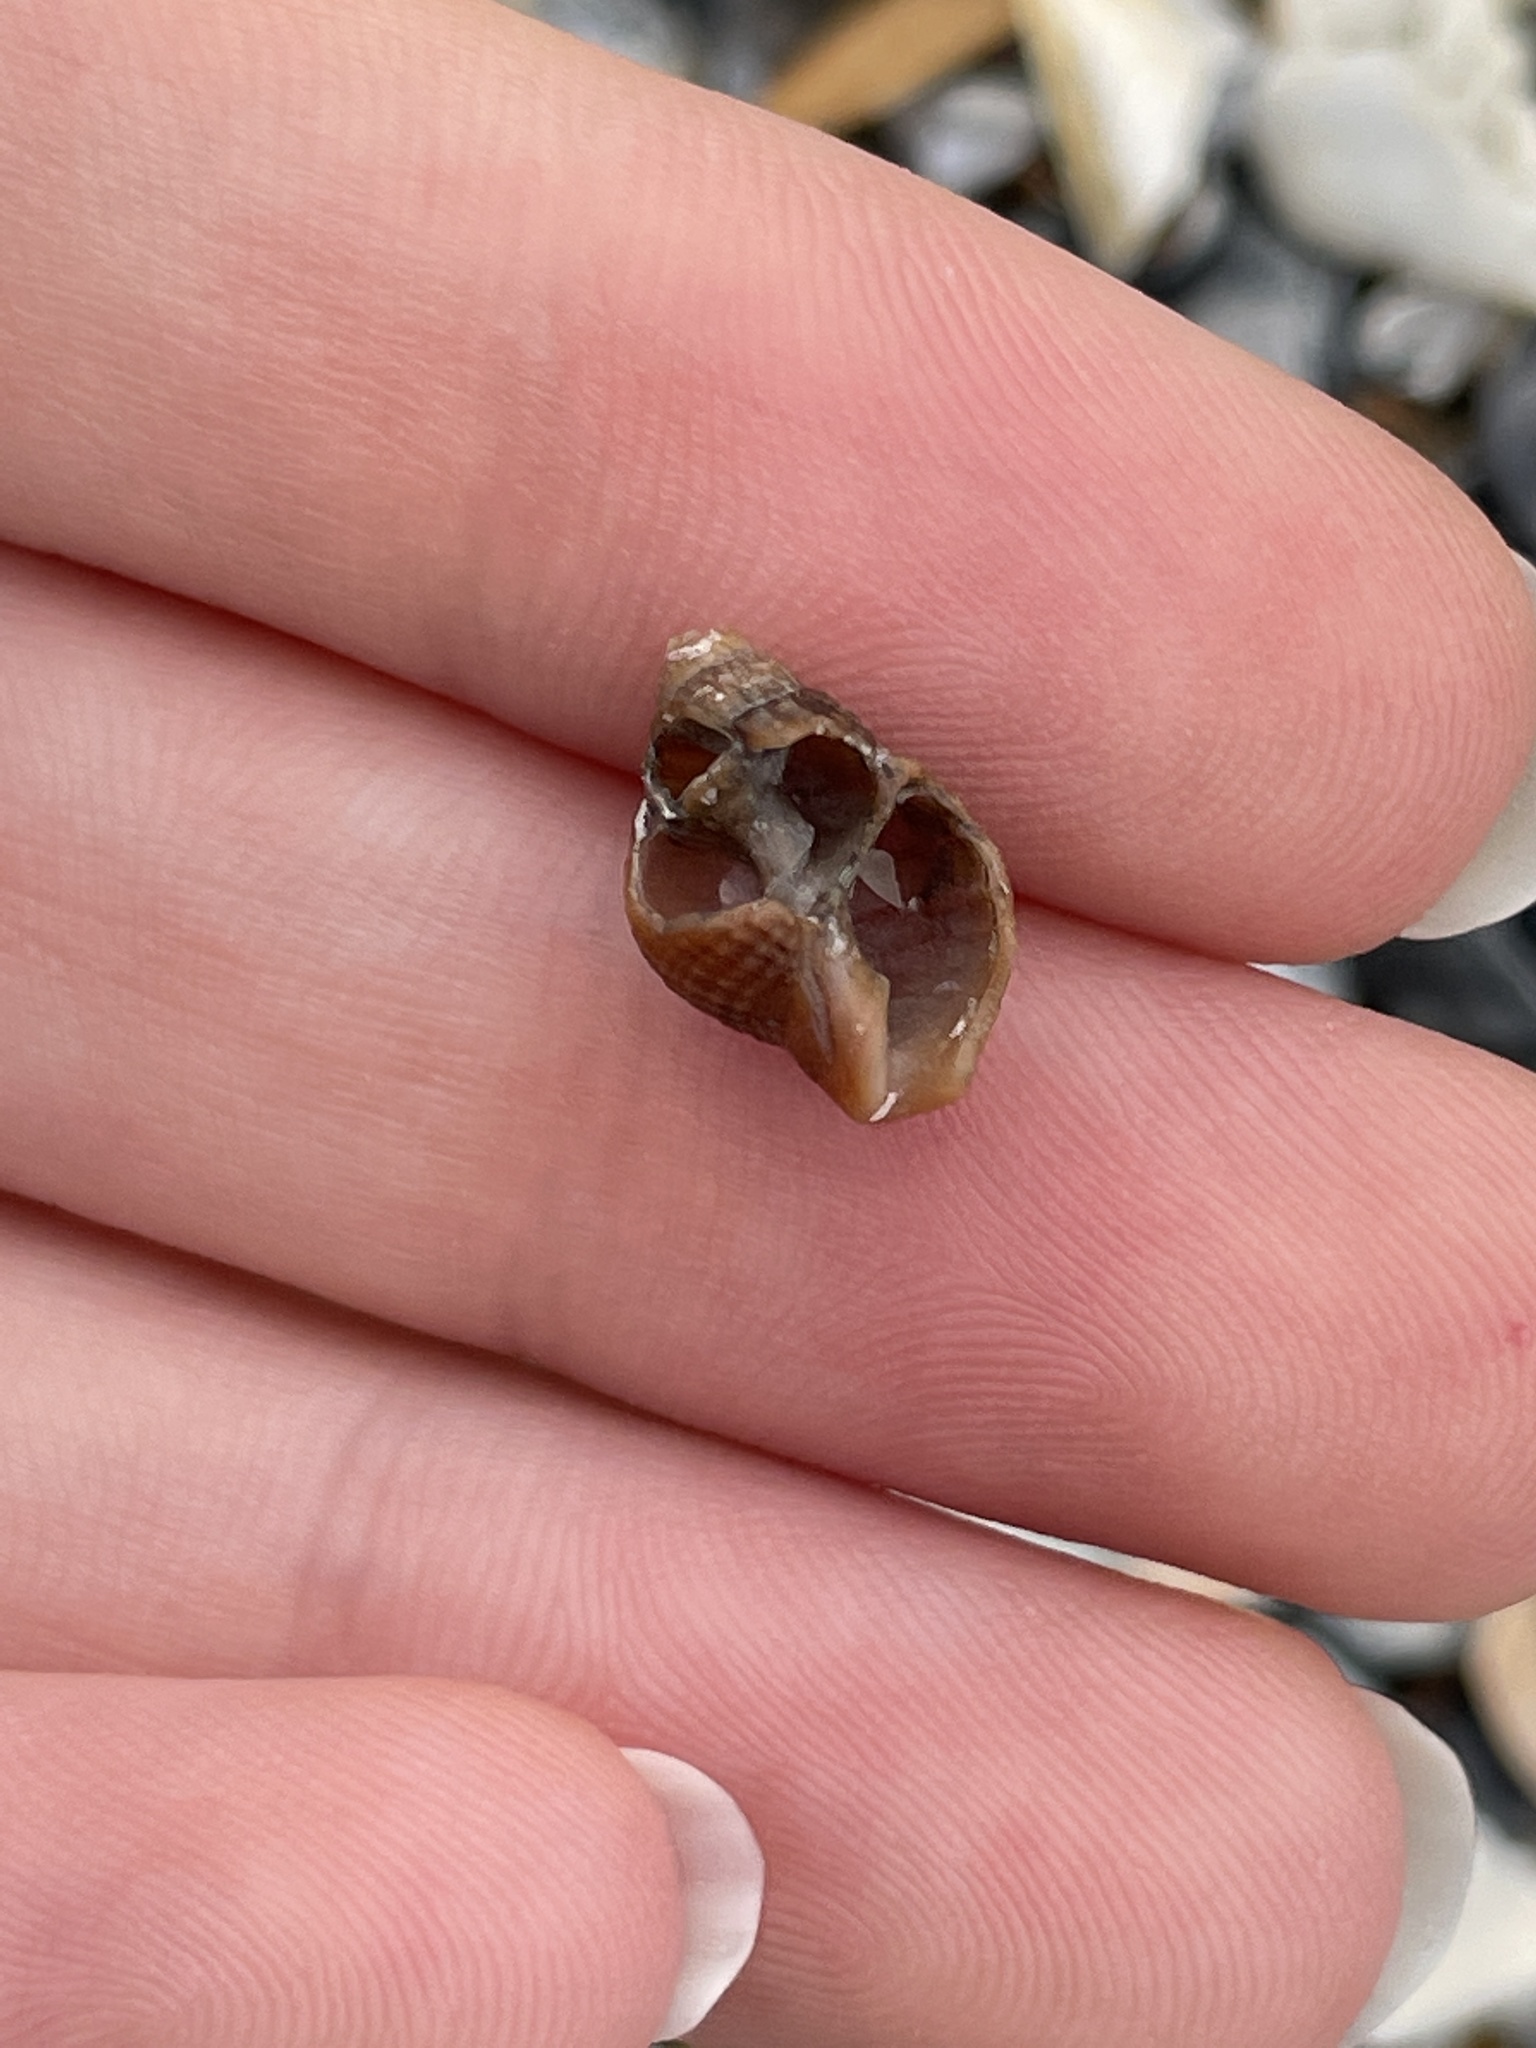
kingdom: Animalia
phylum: Mollusca
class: Gastropoda
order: Neogastropoda
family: Nassariidae
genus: Ilyanassa
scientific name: Ilyanassa obsoleta
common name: Eastern mudsnail
